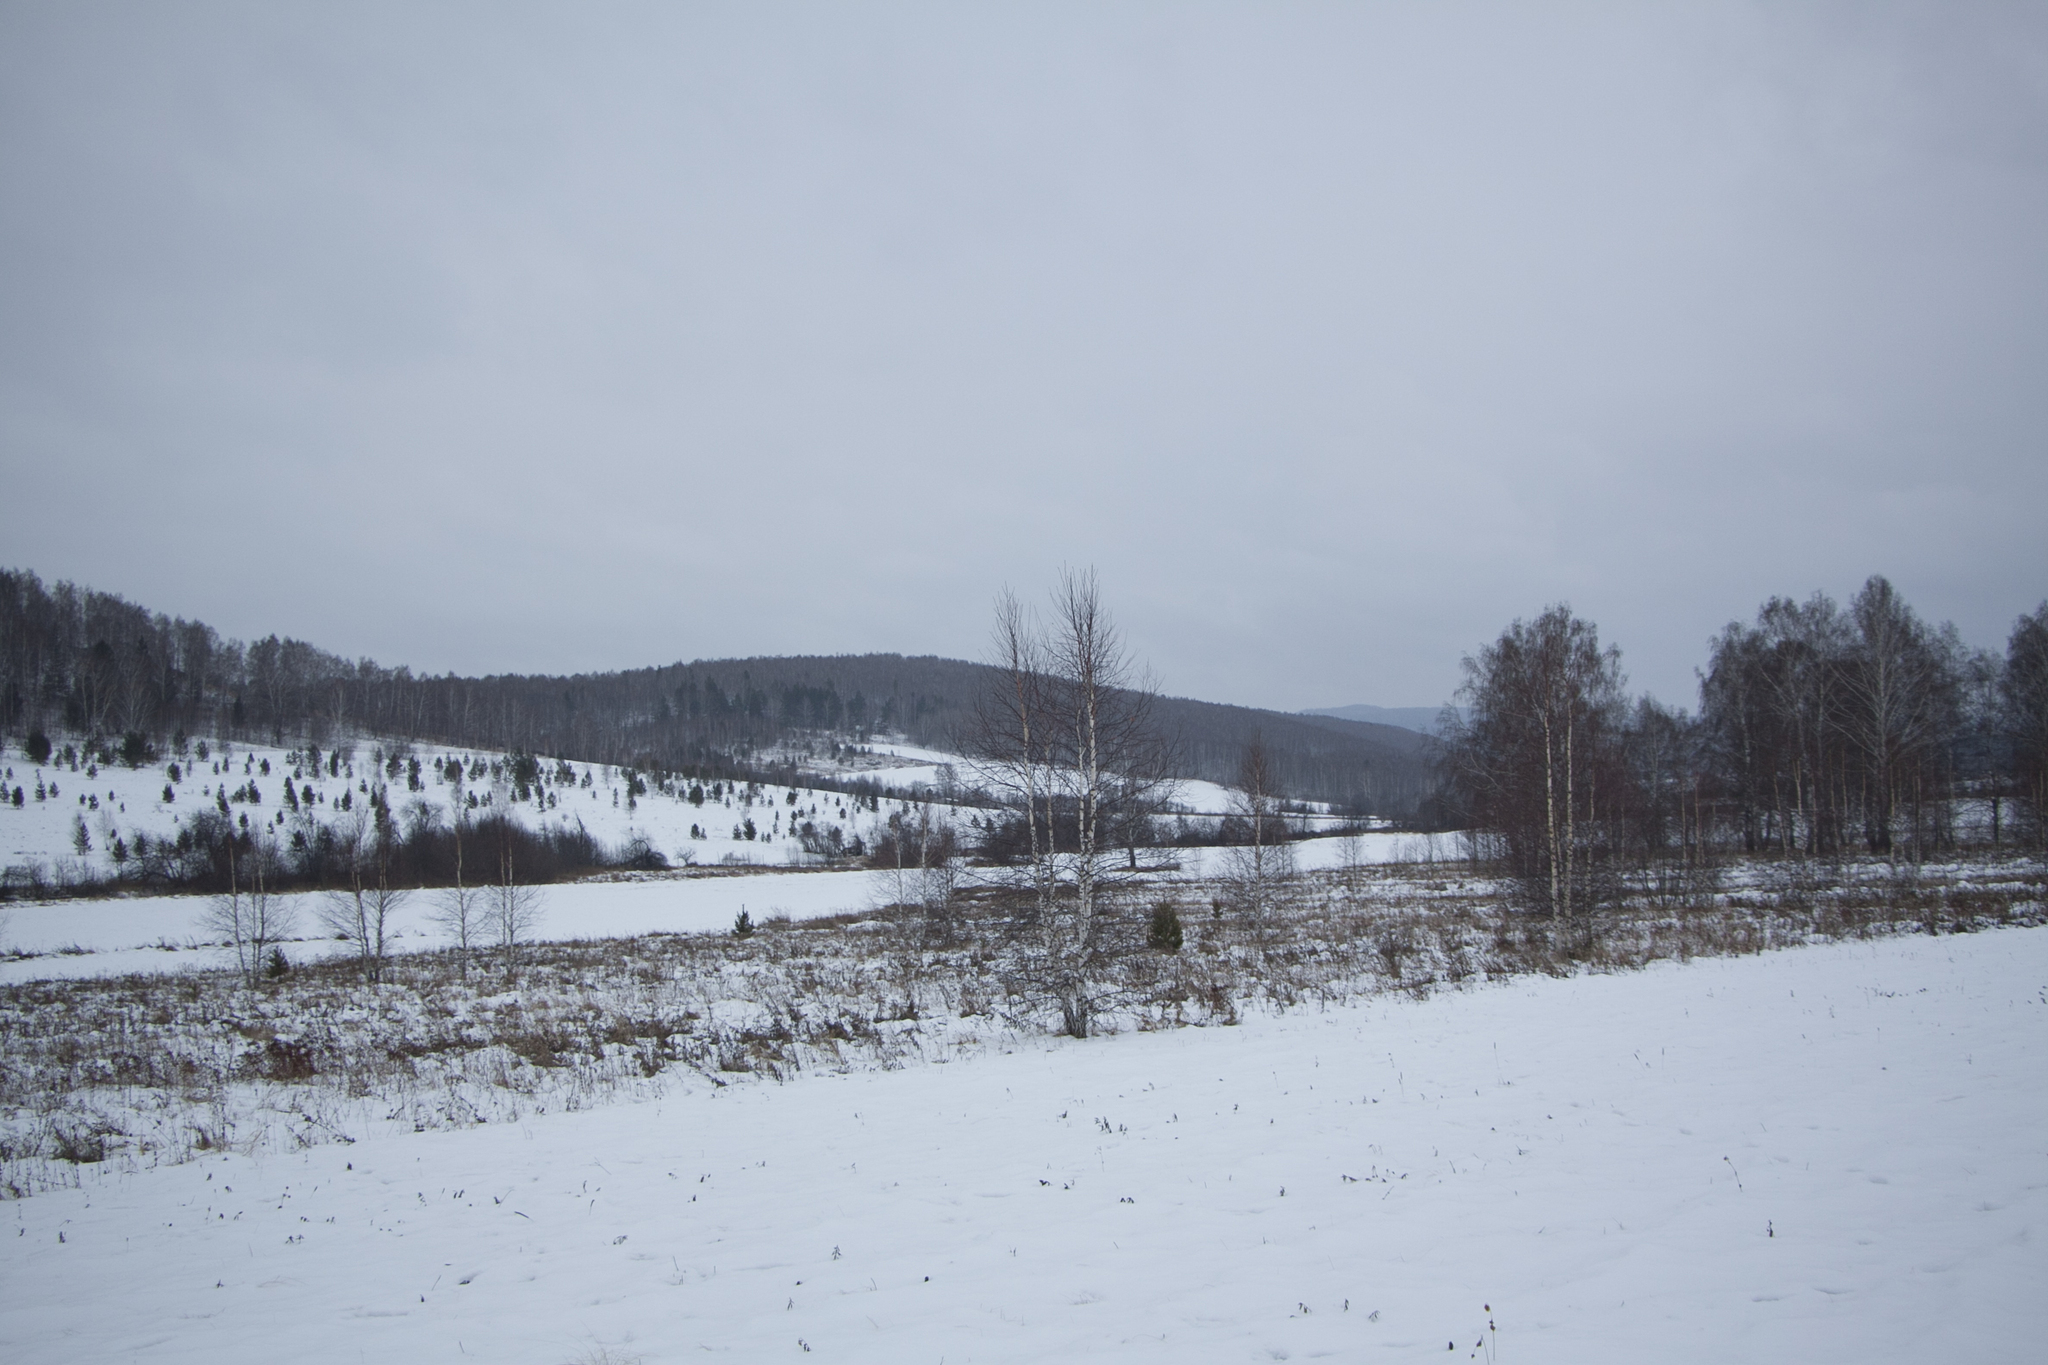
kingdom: Plantae
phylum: Tracheophyta
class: Pinopsida
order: Pinales
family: Pinaceae
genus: Pinus
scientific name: Pinus sylvestris
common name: Scots pine
